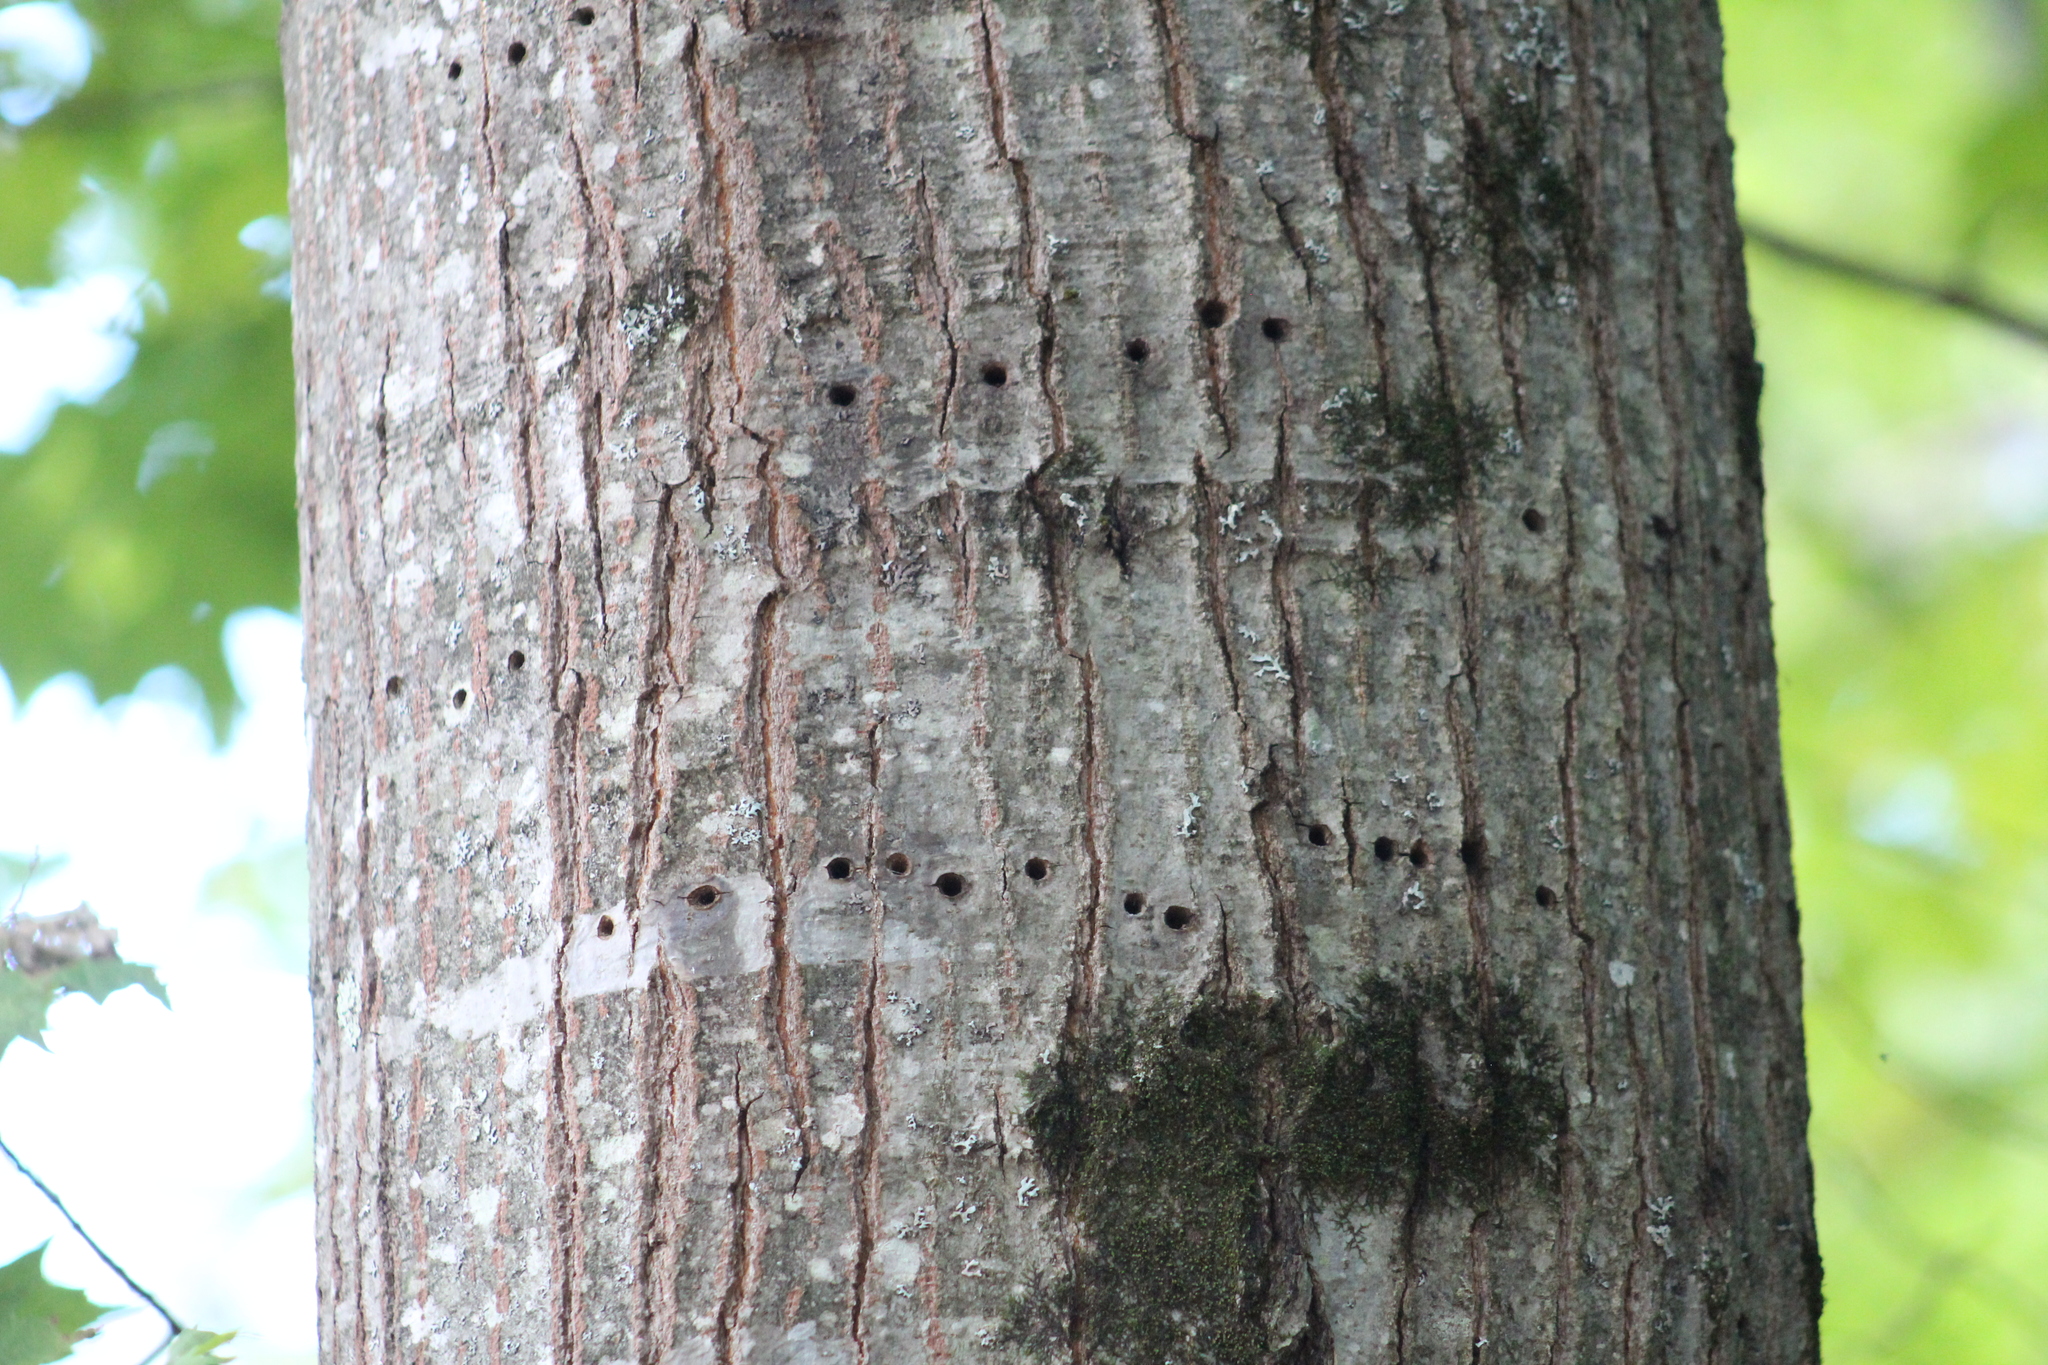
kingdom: Animalia
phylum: Chordata
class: Aves
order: Piciformes
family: Picidae
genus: Sphyrapicus
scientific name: Sphyrapicus varius
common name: Yellow-bellied sapsucker
